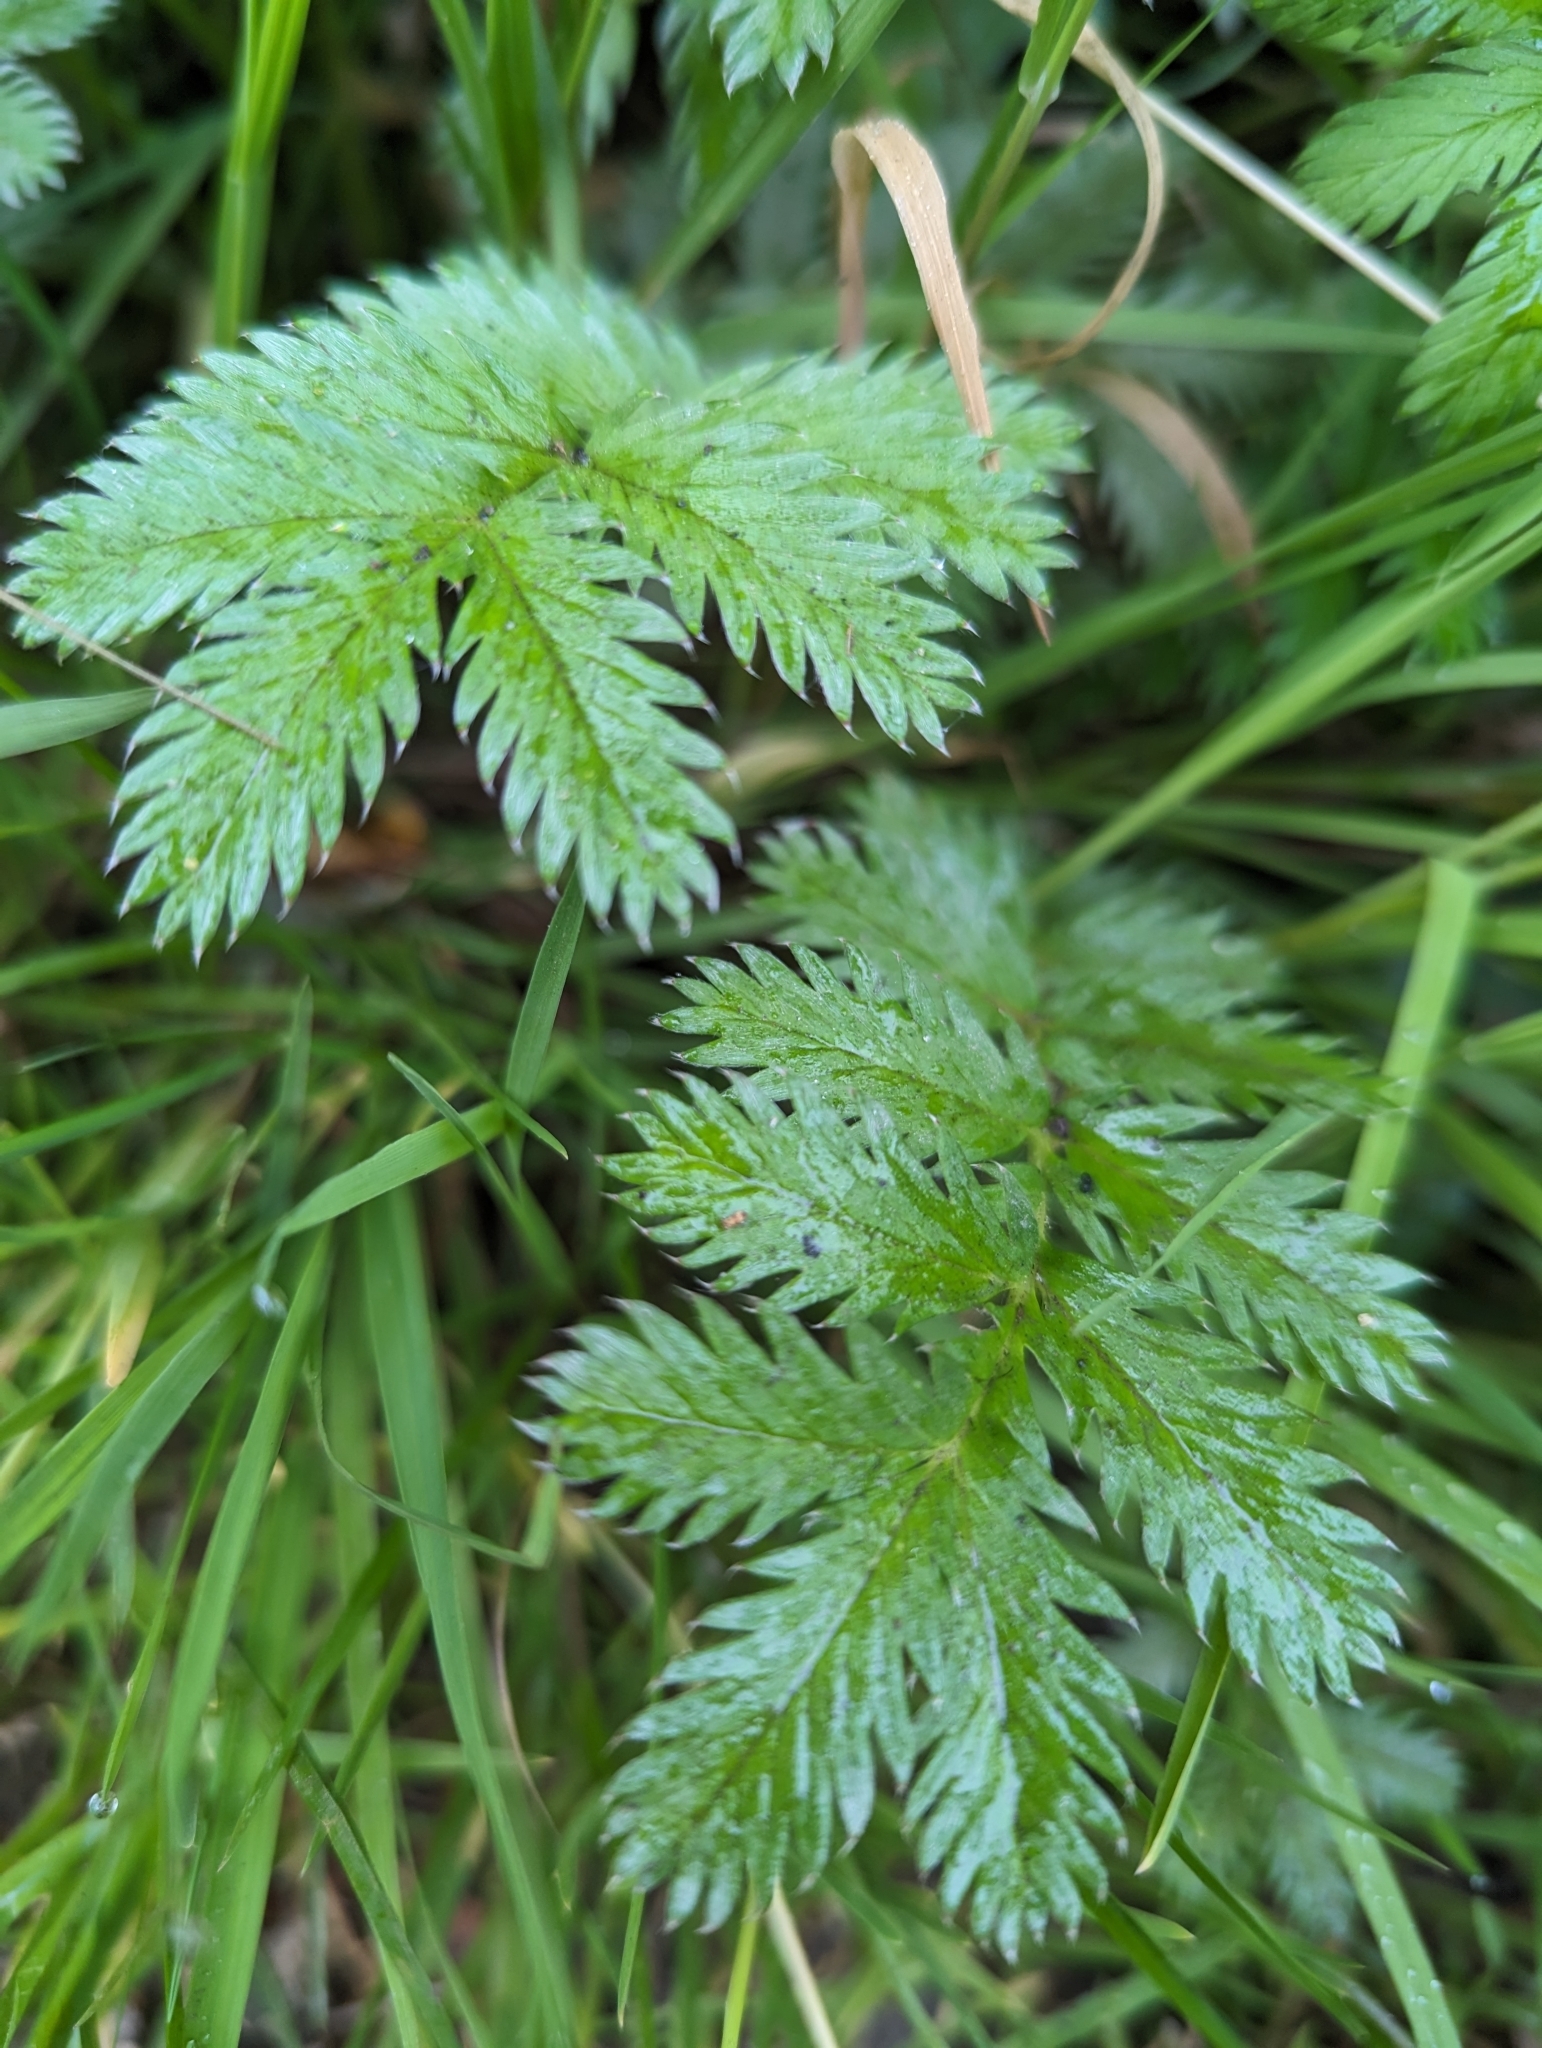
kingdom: Plantae
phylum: Tracheophyta
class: Magnoliopsida
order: Rosales
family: Rosaceae
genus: Argentina
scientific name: Argentina anserina
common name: Common silverweed
